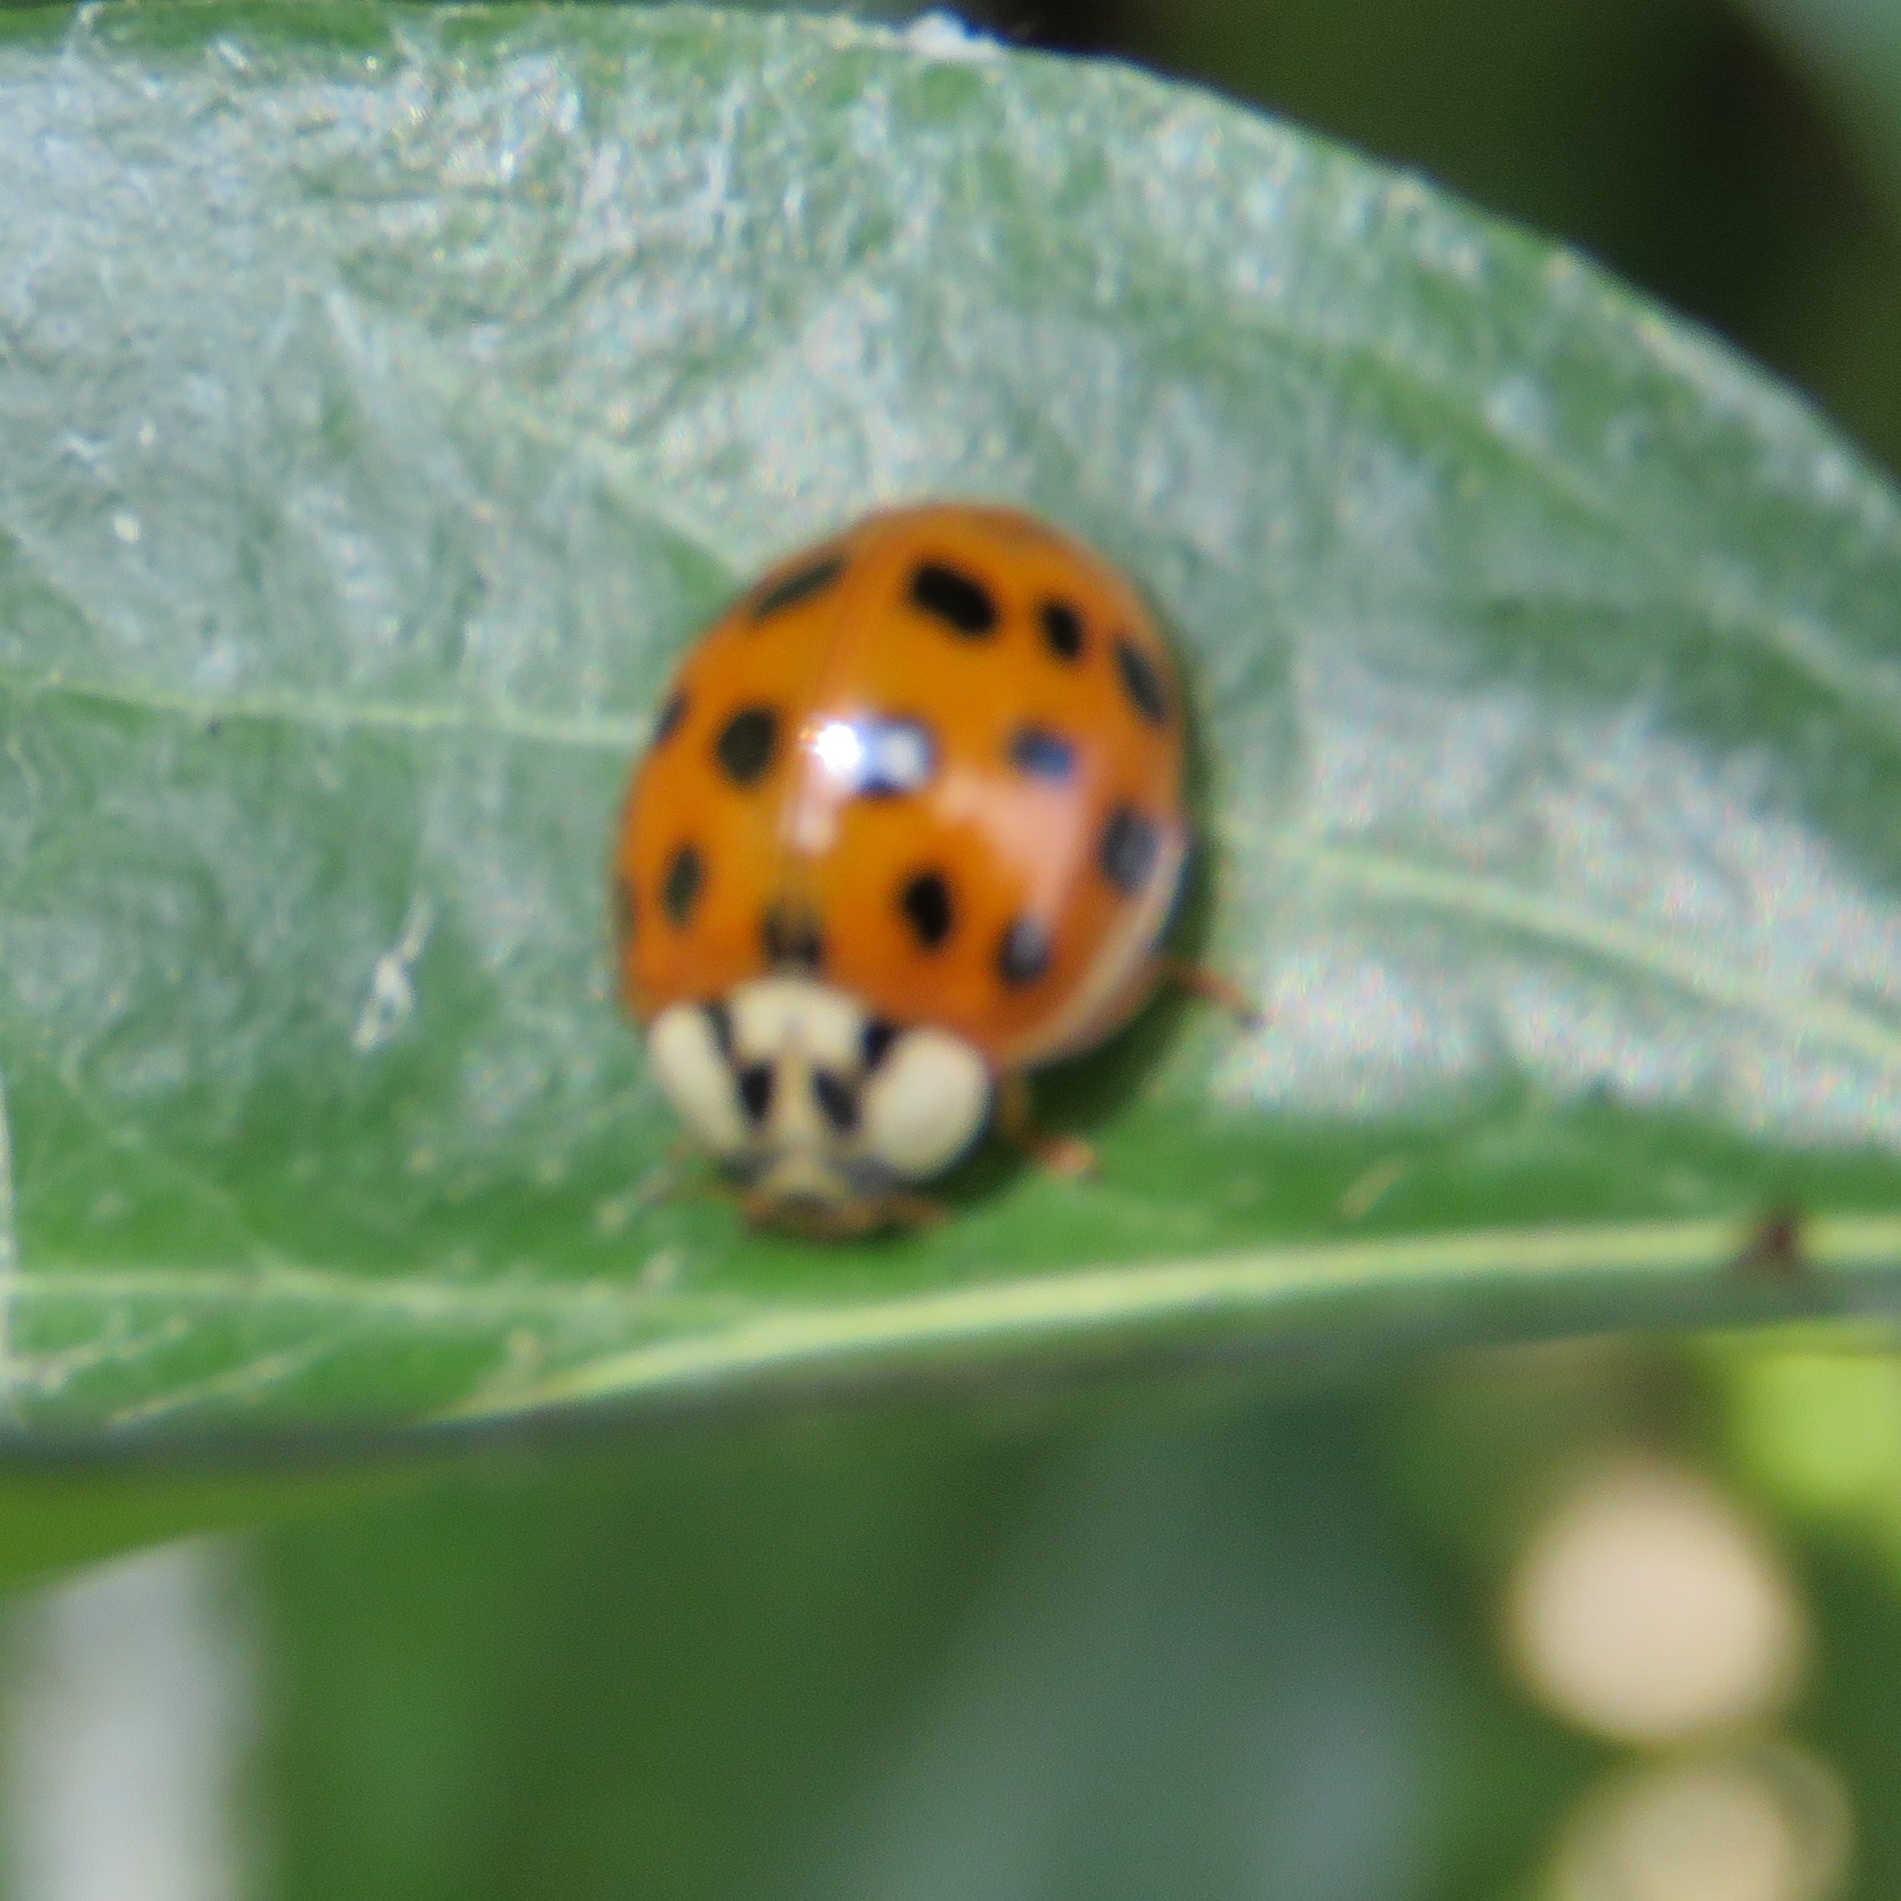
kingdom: Animalia
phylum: Arthropoda
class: Insecta
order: Coleoptera
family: Coccinellidae
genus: Harmonia
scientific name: Harmonia axyridis
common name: Harlequin ladybird
